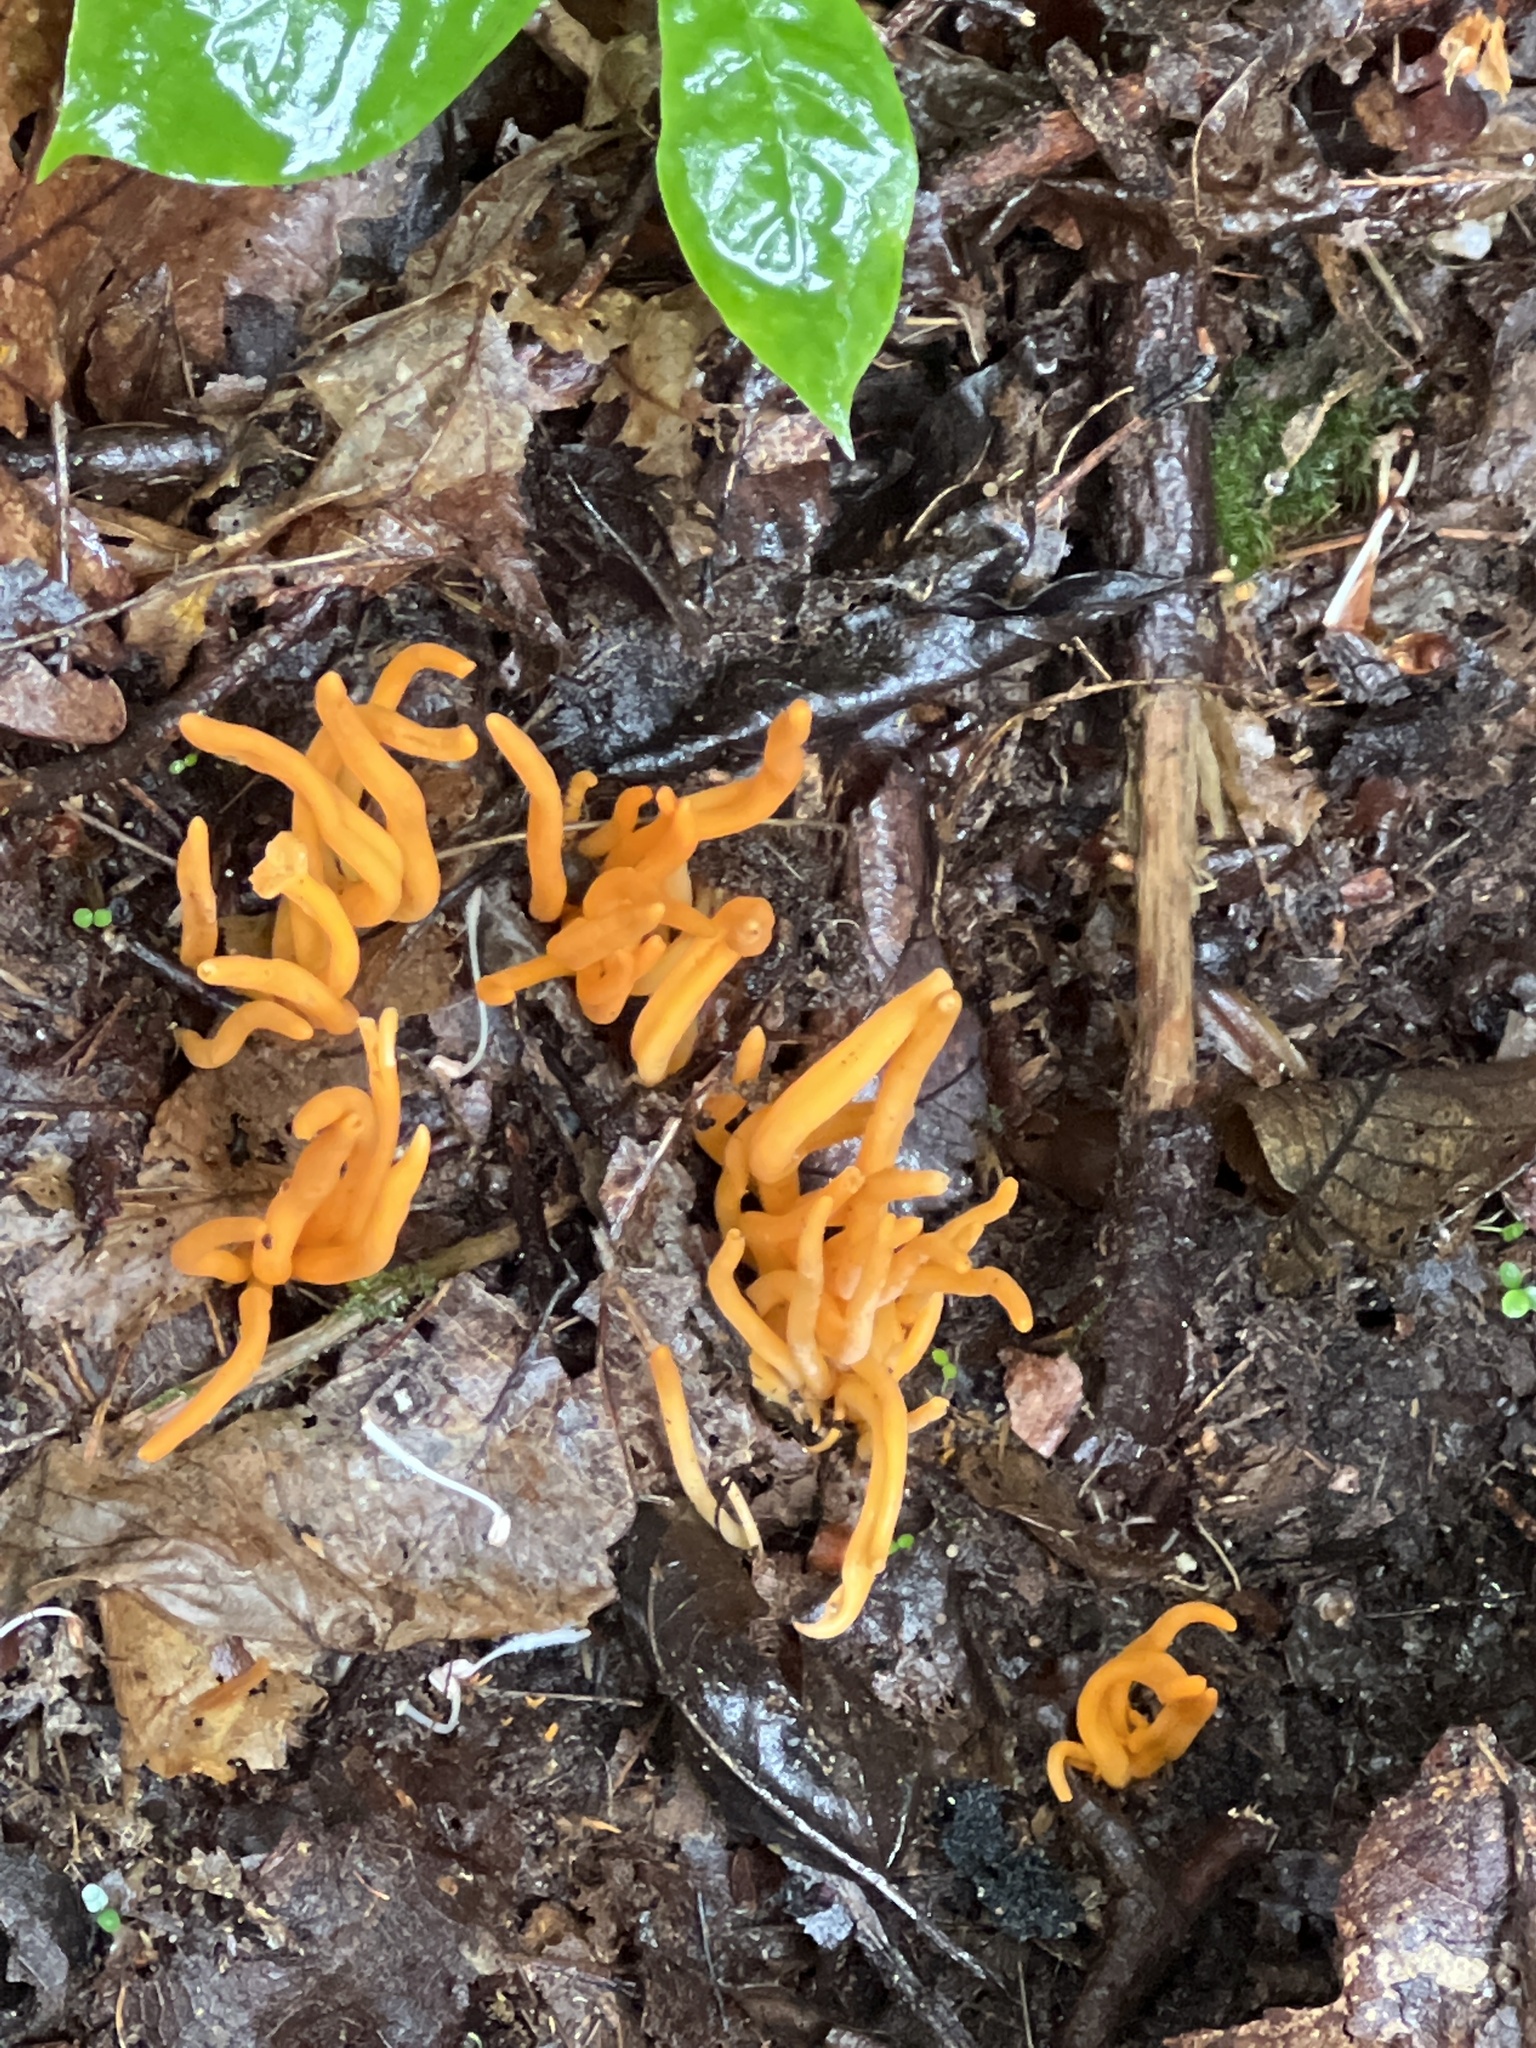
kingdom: Fungi
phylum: Basidiomycota
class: Agaricomycetes
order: Agaricales
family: Clavariaceae
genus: Clavulinopsis
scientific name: Clavulinopsis aurantiocinnabarina
